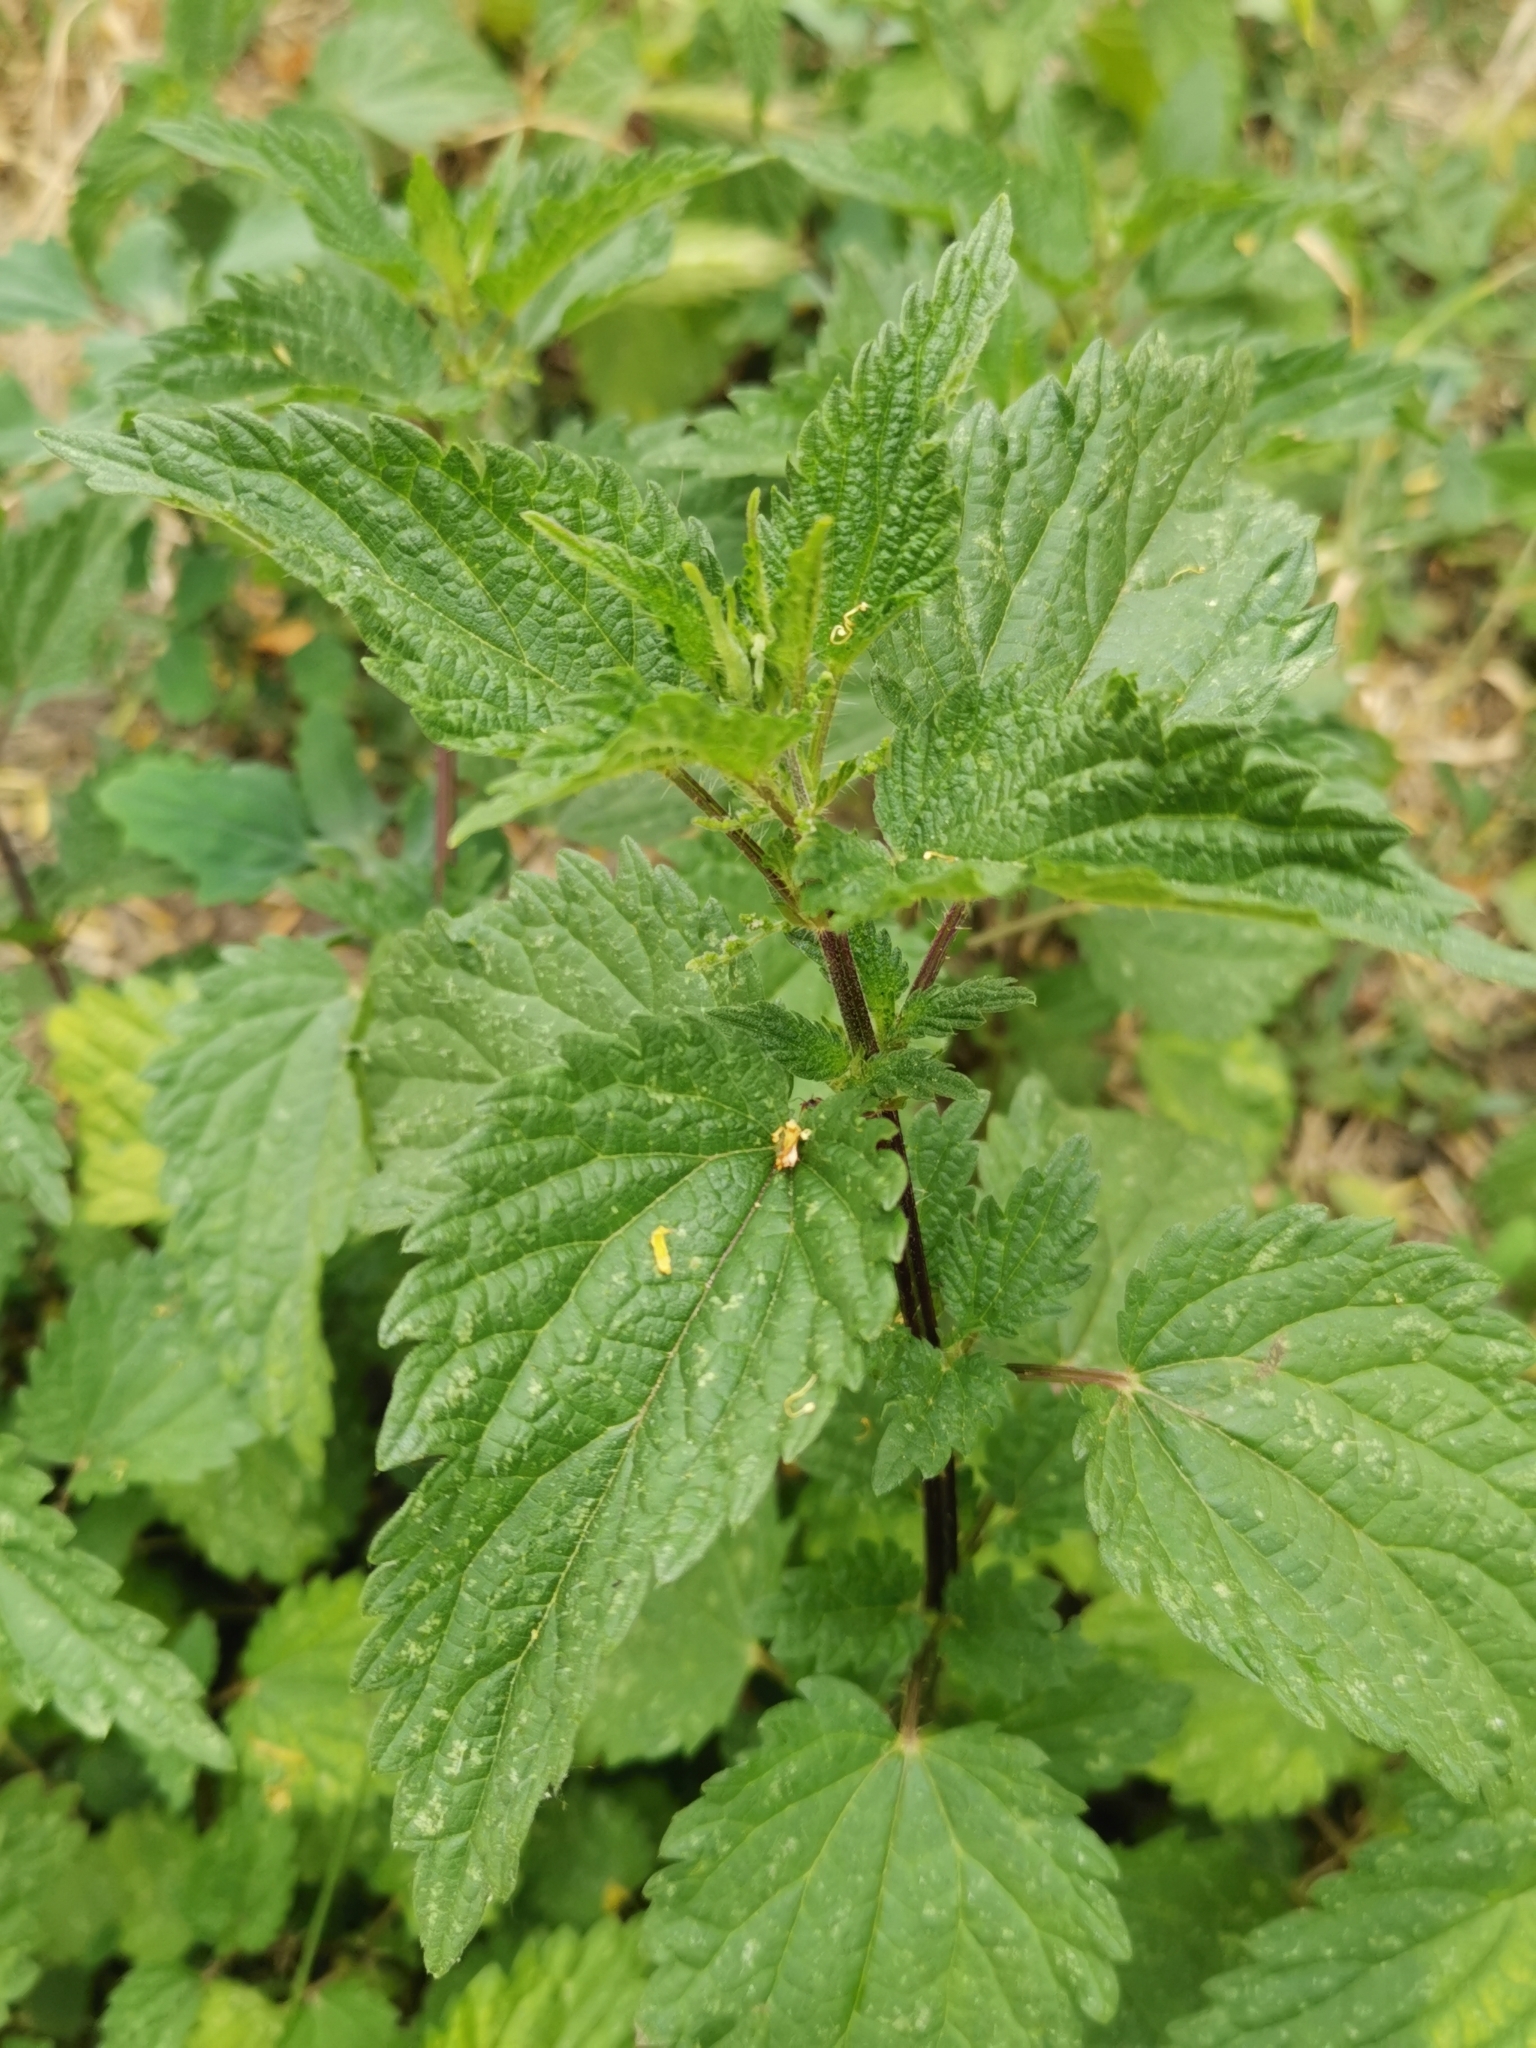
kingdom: Plantae
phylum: Tracheophyta
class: Magnoliopsida
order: Rosales
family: Urticaceae
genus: Urtica
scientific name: Urtica dioica
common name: Common nettle
